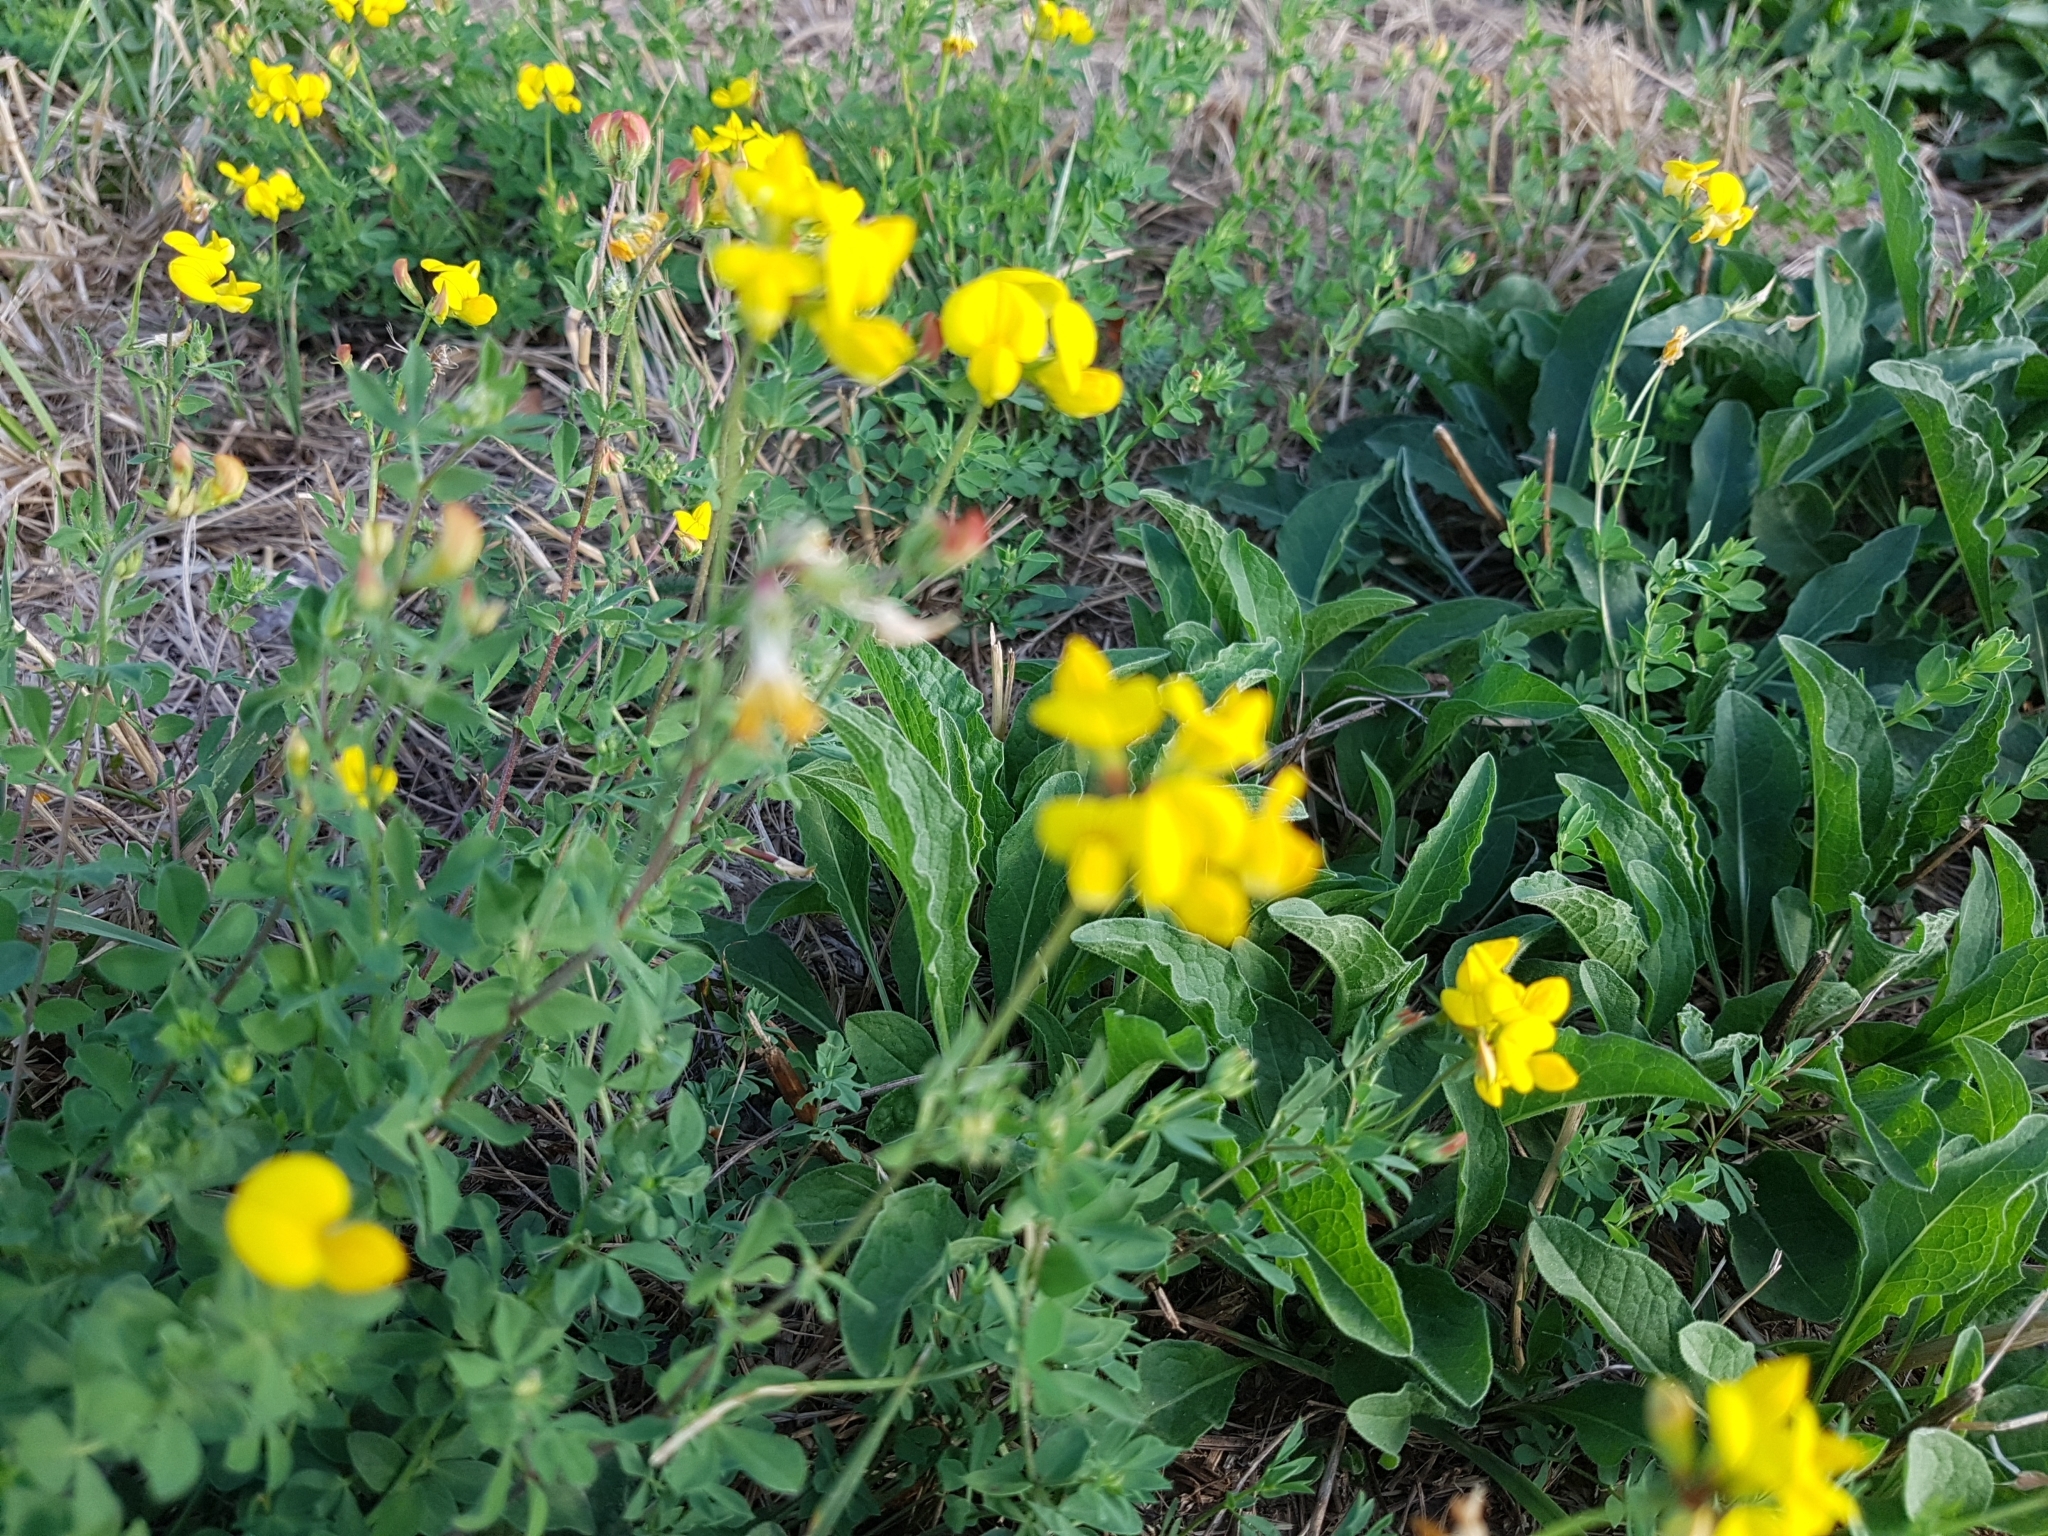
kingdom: Plantae
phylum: Tracheophyta
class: Magnoliopsida
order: Fabales
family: Fabaceae
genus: Lotus
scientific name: Lotus corniculatus
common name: Common bird's-foot-trefoil
